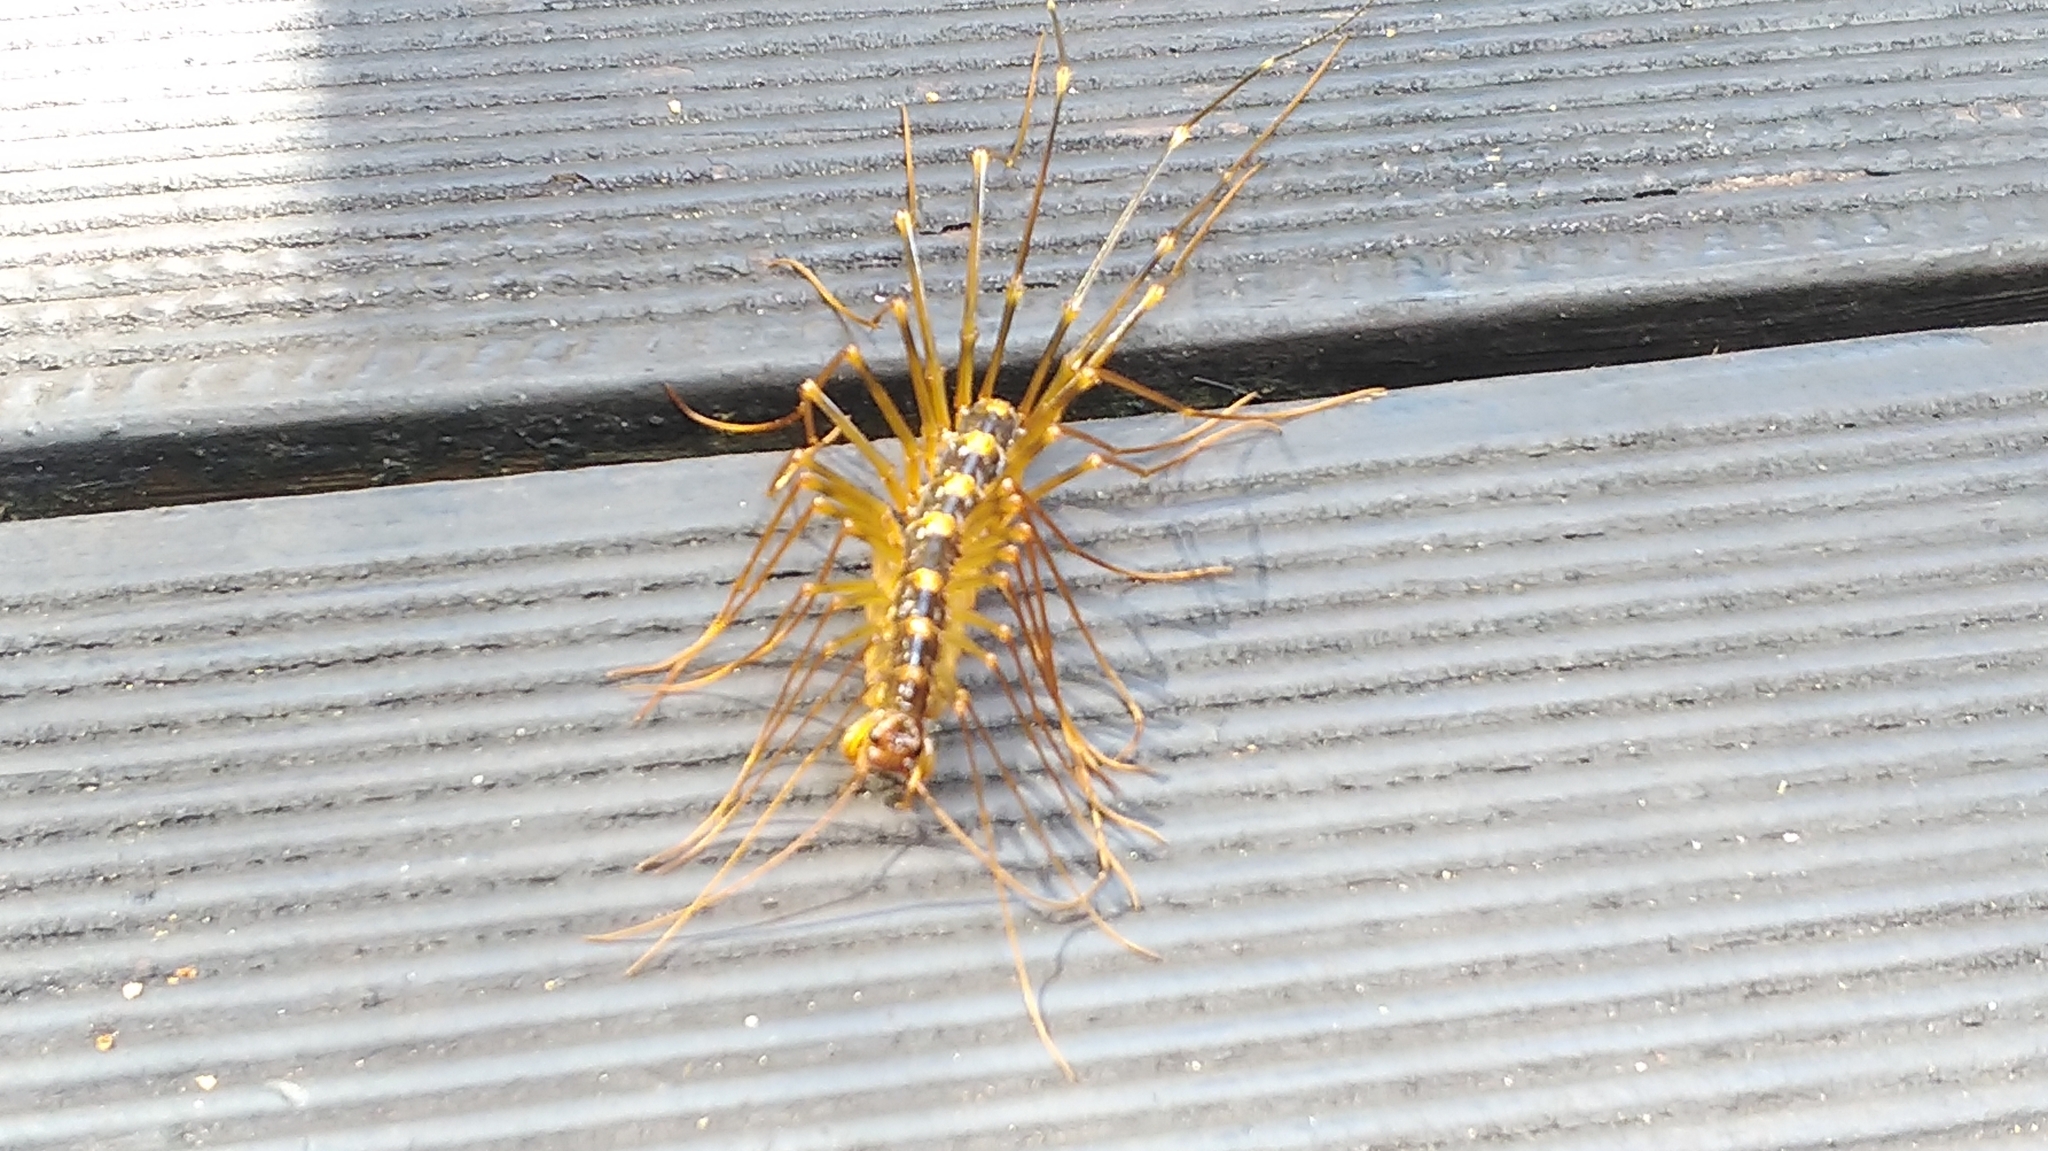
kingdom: Animalia
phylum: Arthropoda
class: Chilopoda
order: Scutigeromorpha
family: Scutigeridae
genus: Thereuopoda
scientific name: Thereuopoda clunifera
